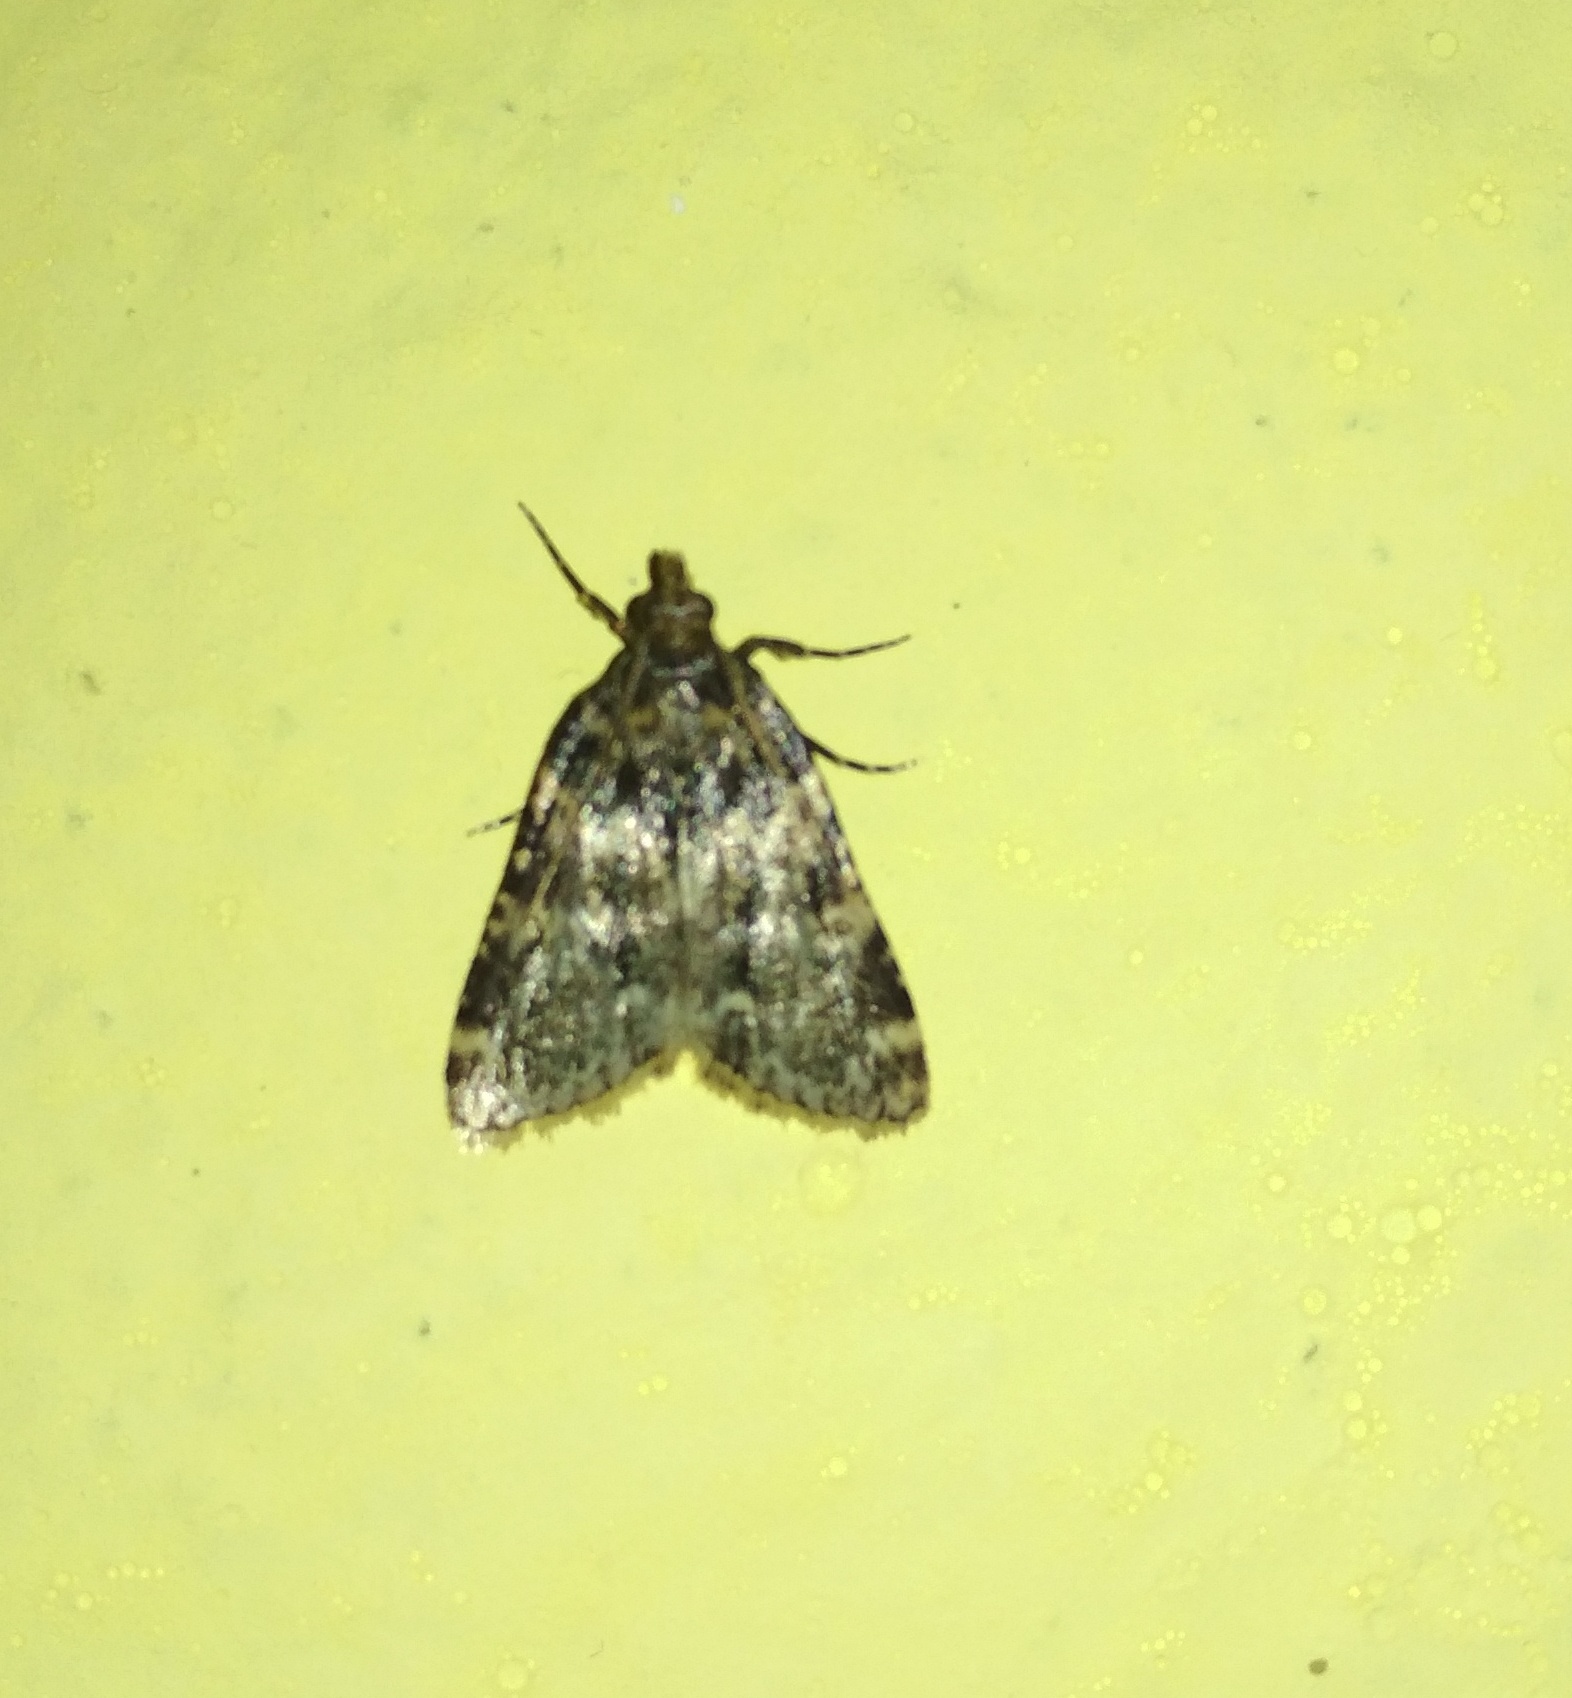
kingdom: Animalia
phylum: Arthropoda
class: Insecta
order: Lepidoptera
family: Pyralidae
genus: Aglossa
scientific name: Aglossa caprealis
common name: Small tabby
